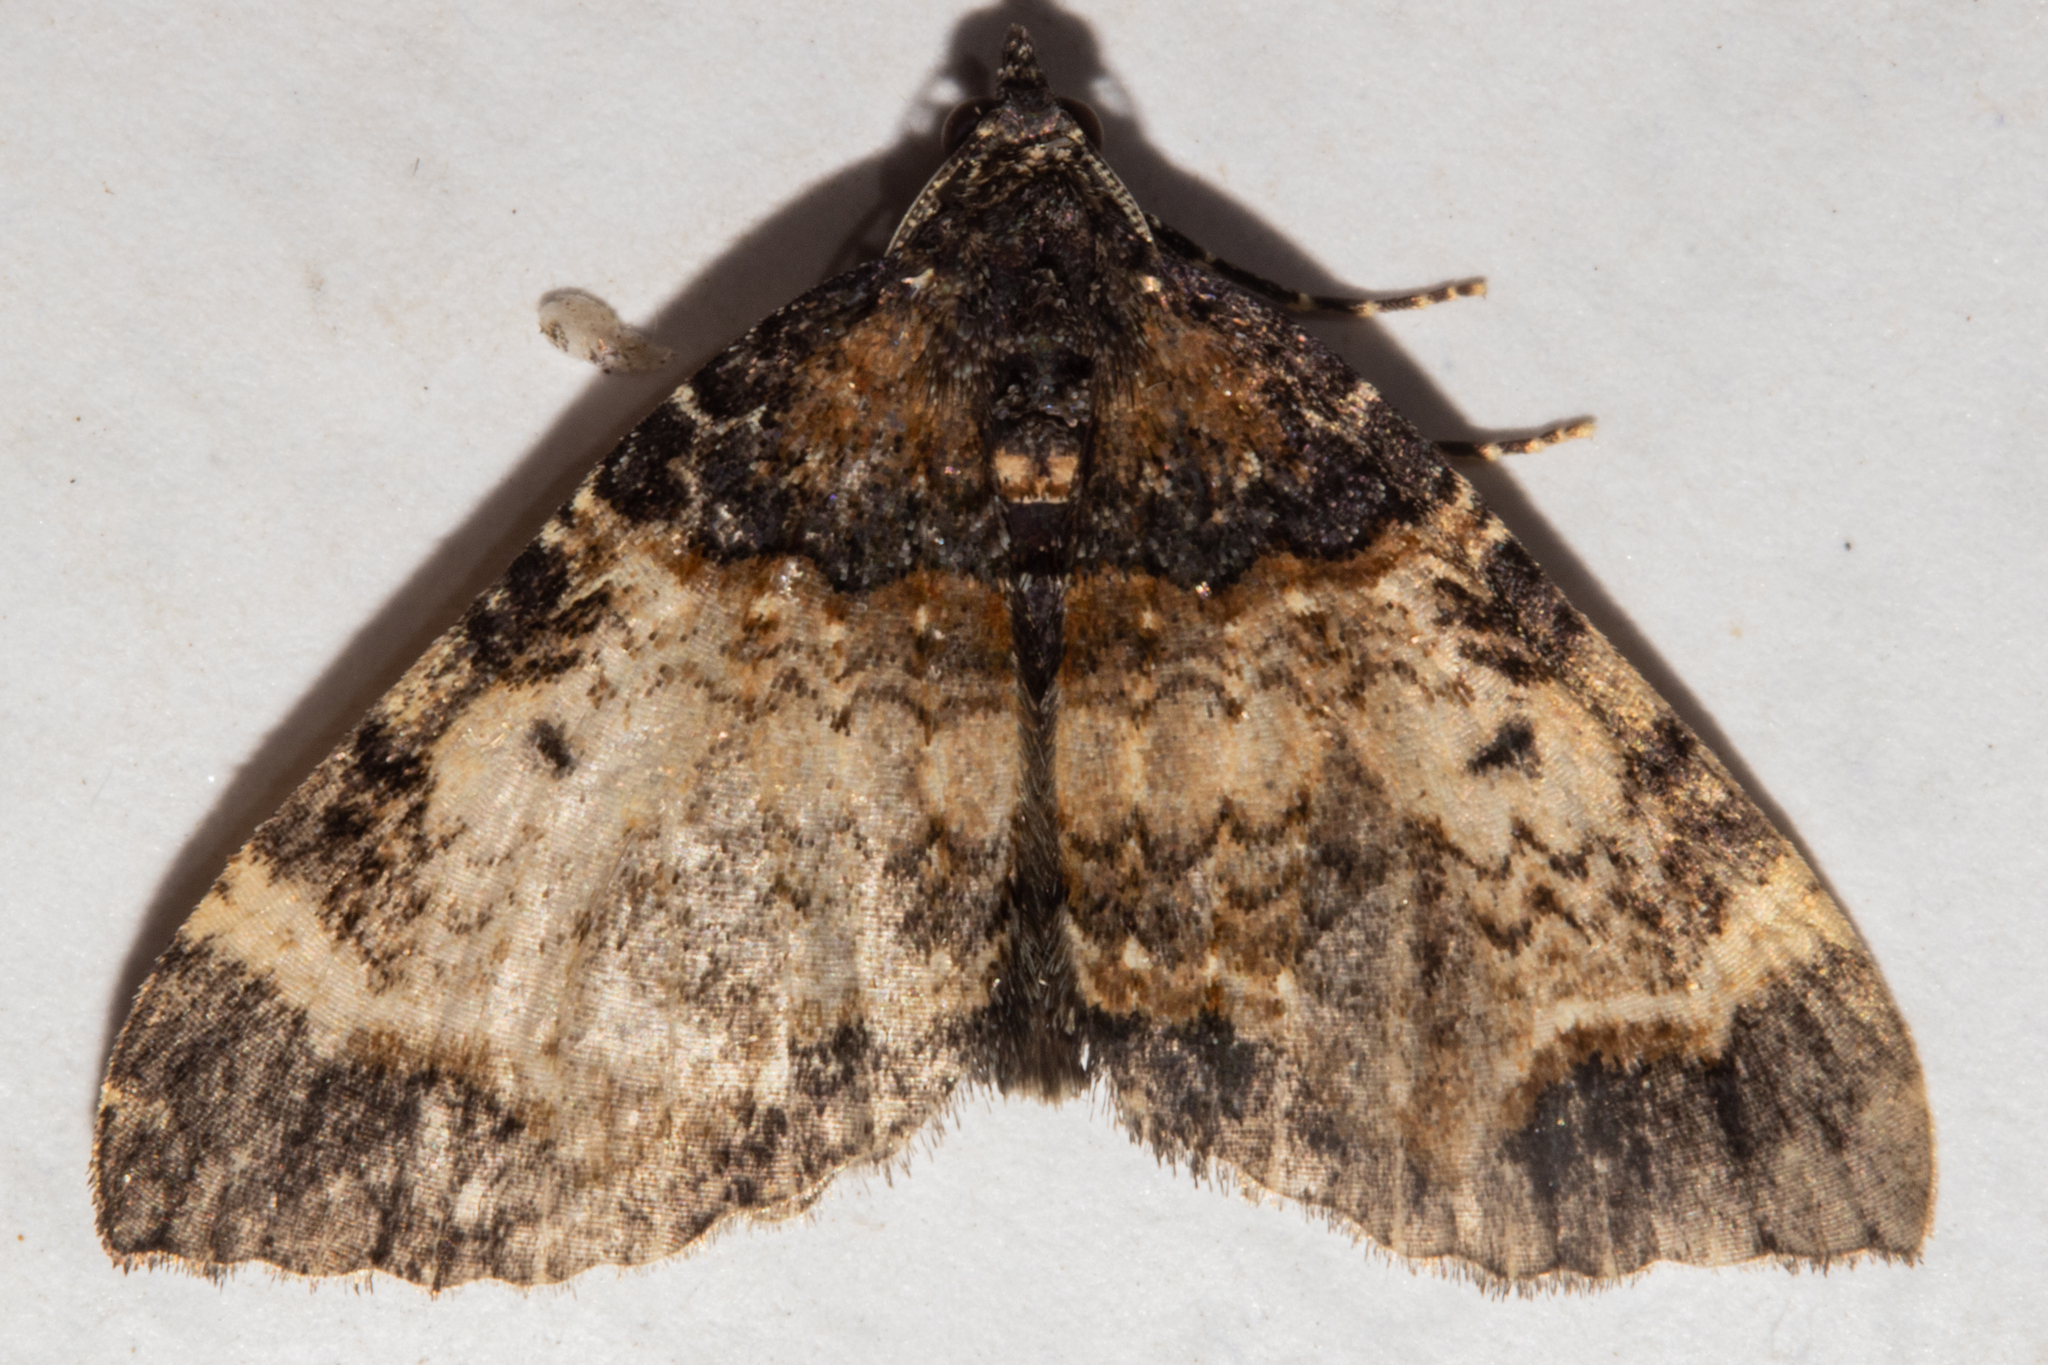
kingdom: Animalia
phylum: Arthropoda
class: Insecta
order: Lepidoptera
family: Geometridae
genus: Hydriomena
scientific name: Hydriomena arida
